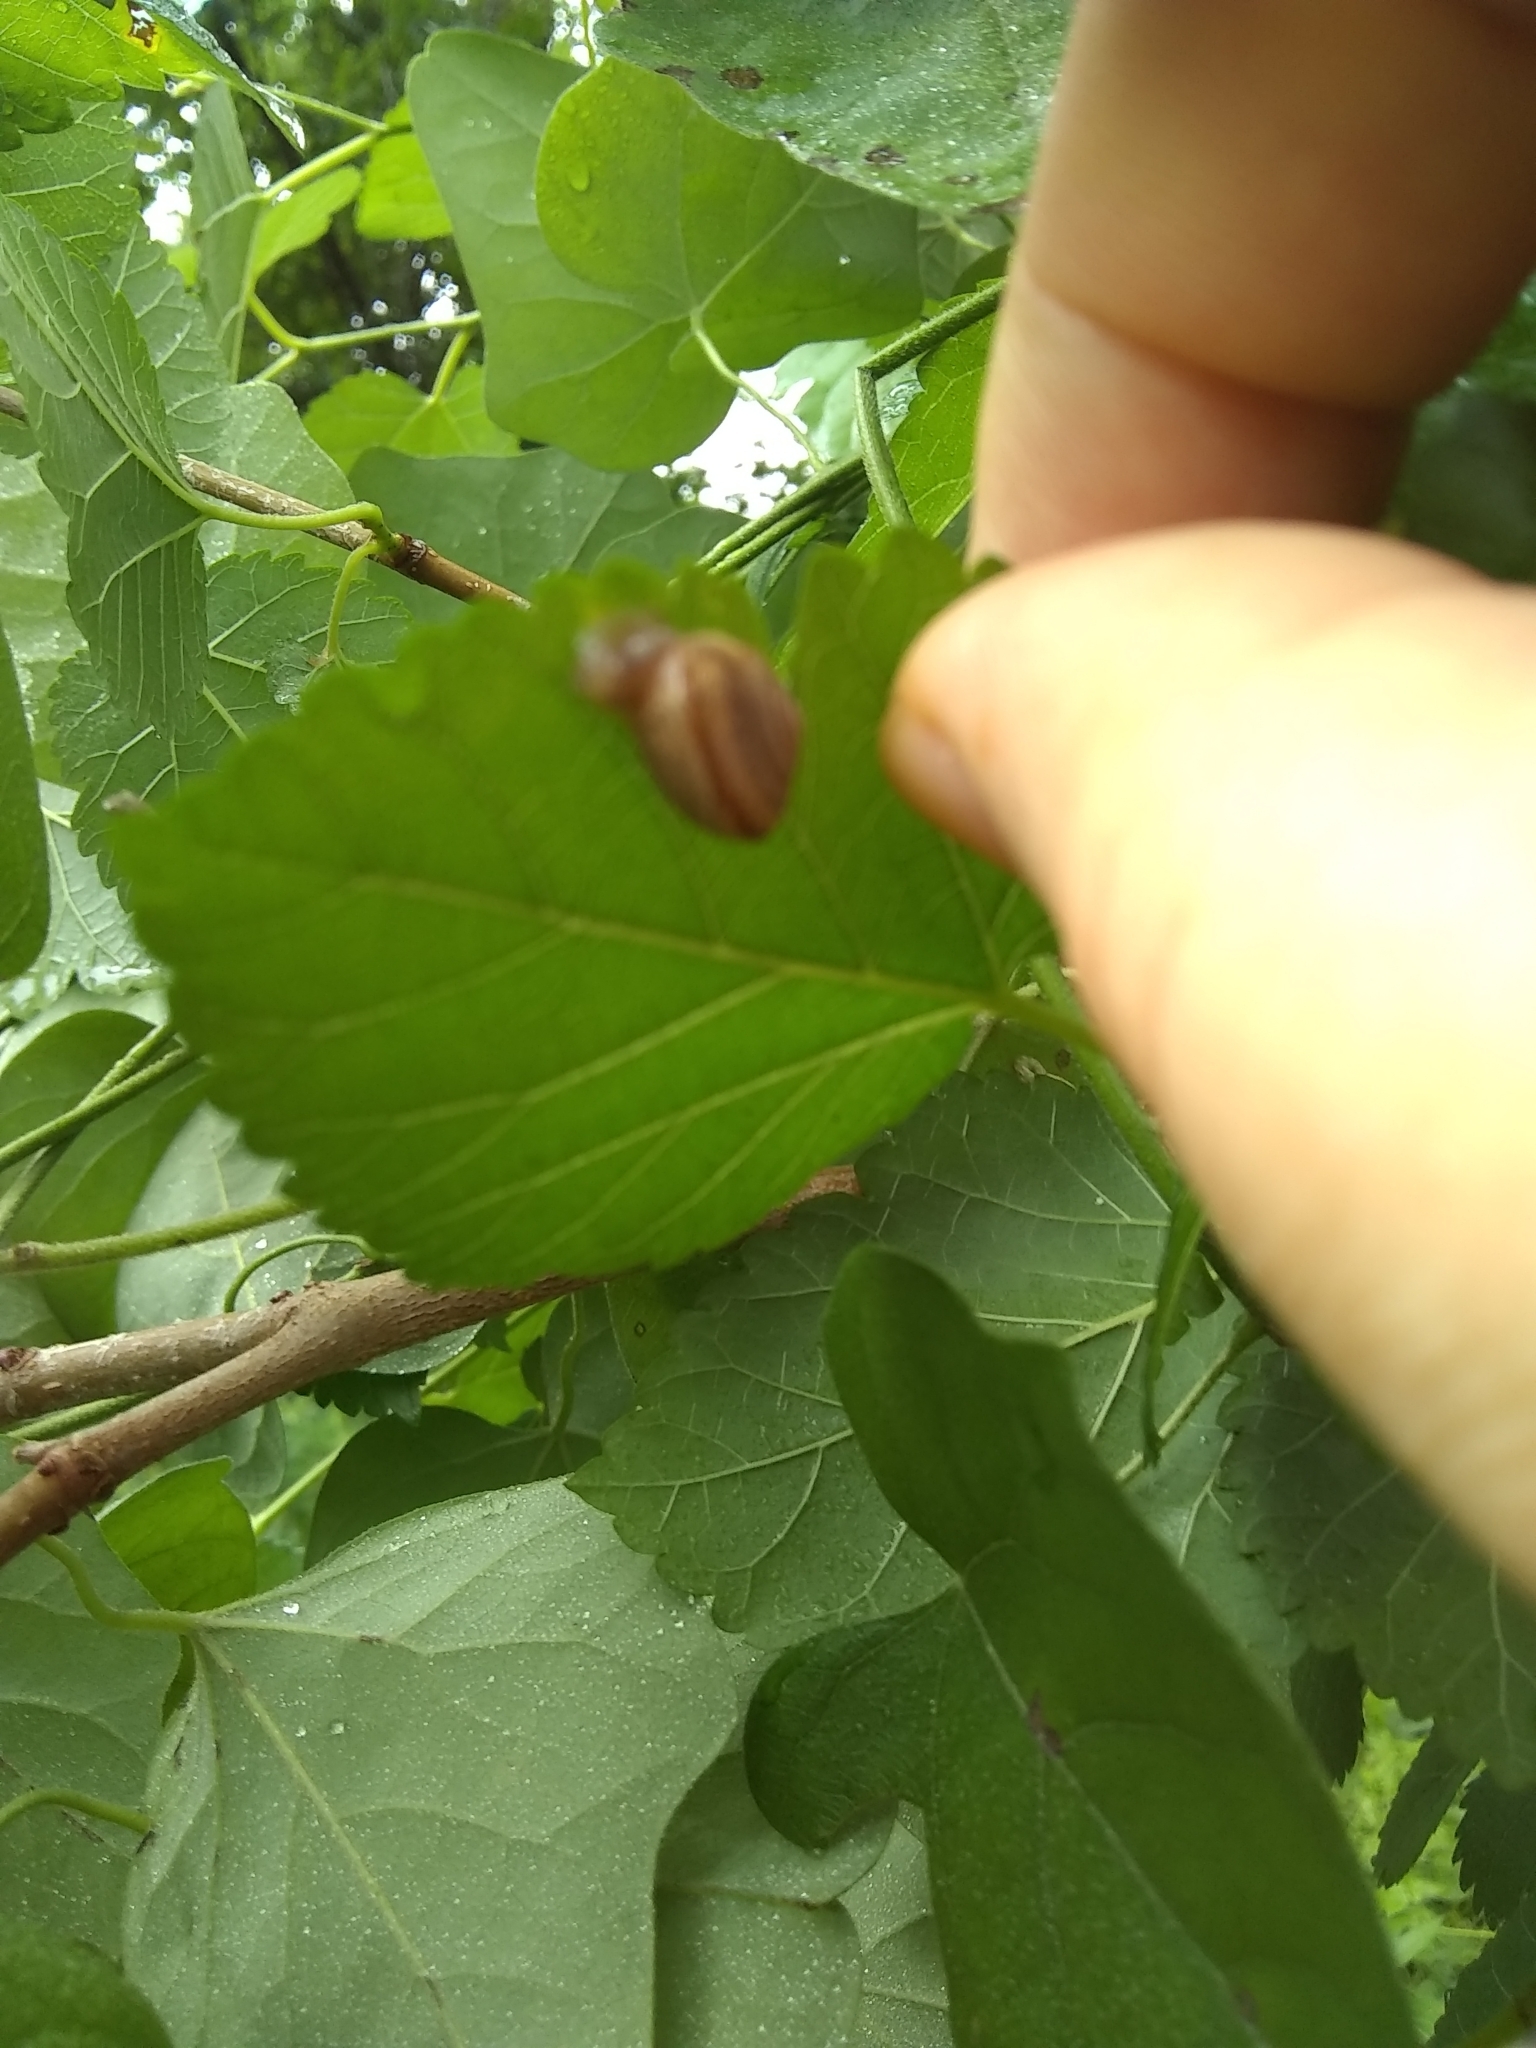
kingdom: Animalia
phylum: Mollusca
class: Gastropoda
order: Stylommatophora
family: Camaenidae
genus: Bradybaena
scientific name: Bradybaena similaris
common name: Asian trampsnail
